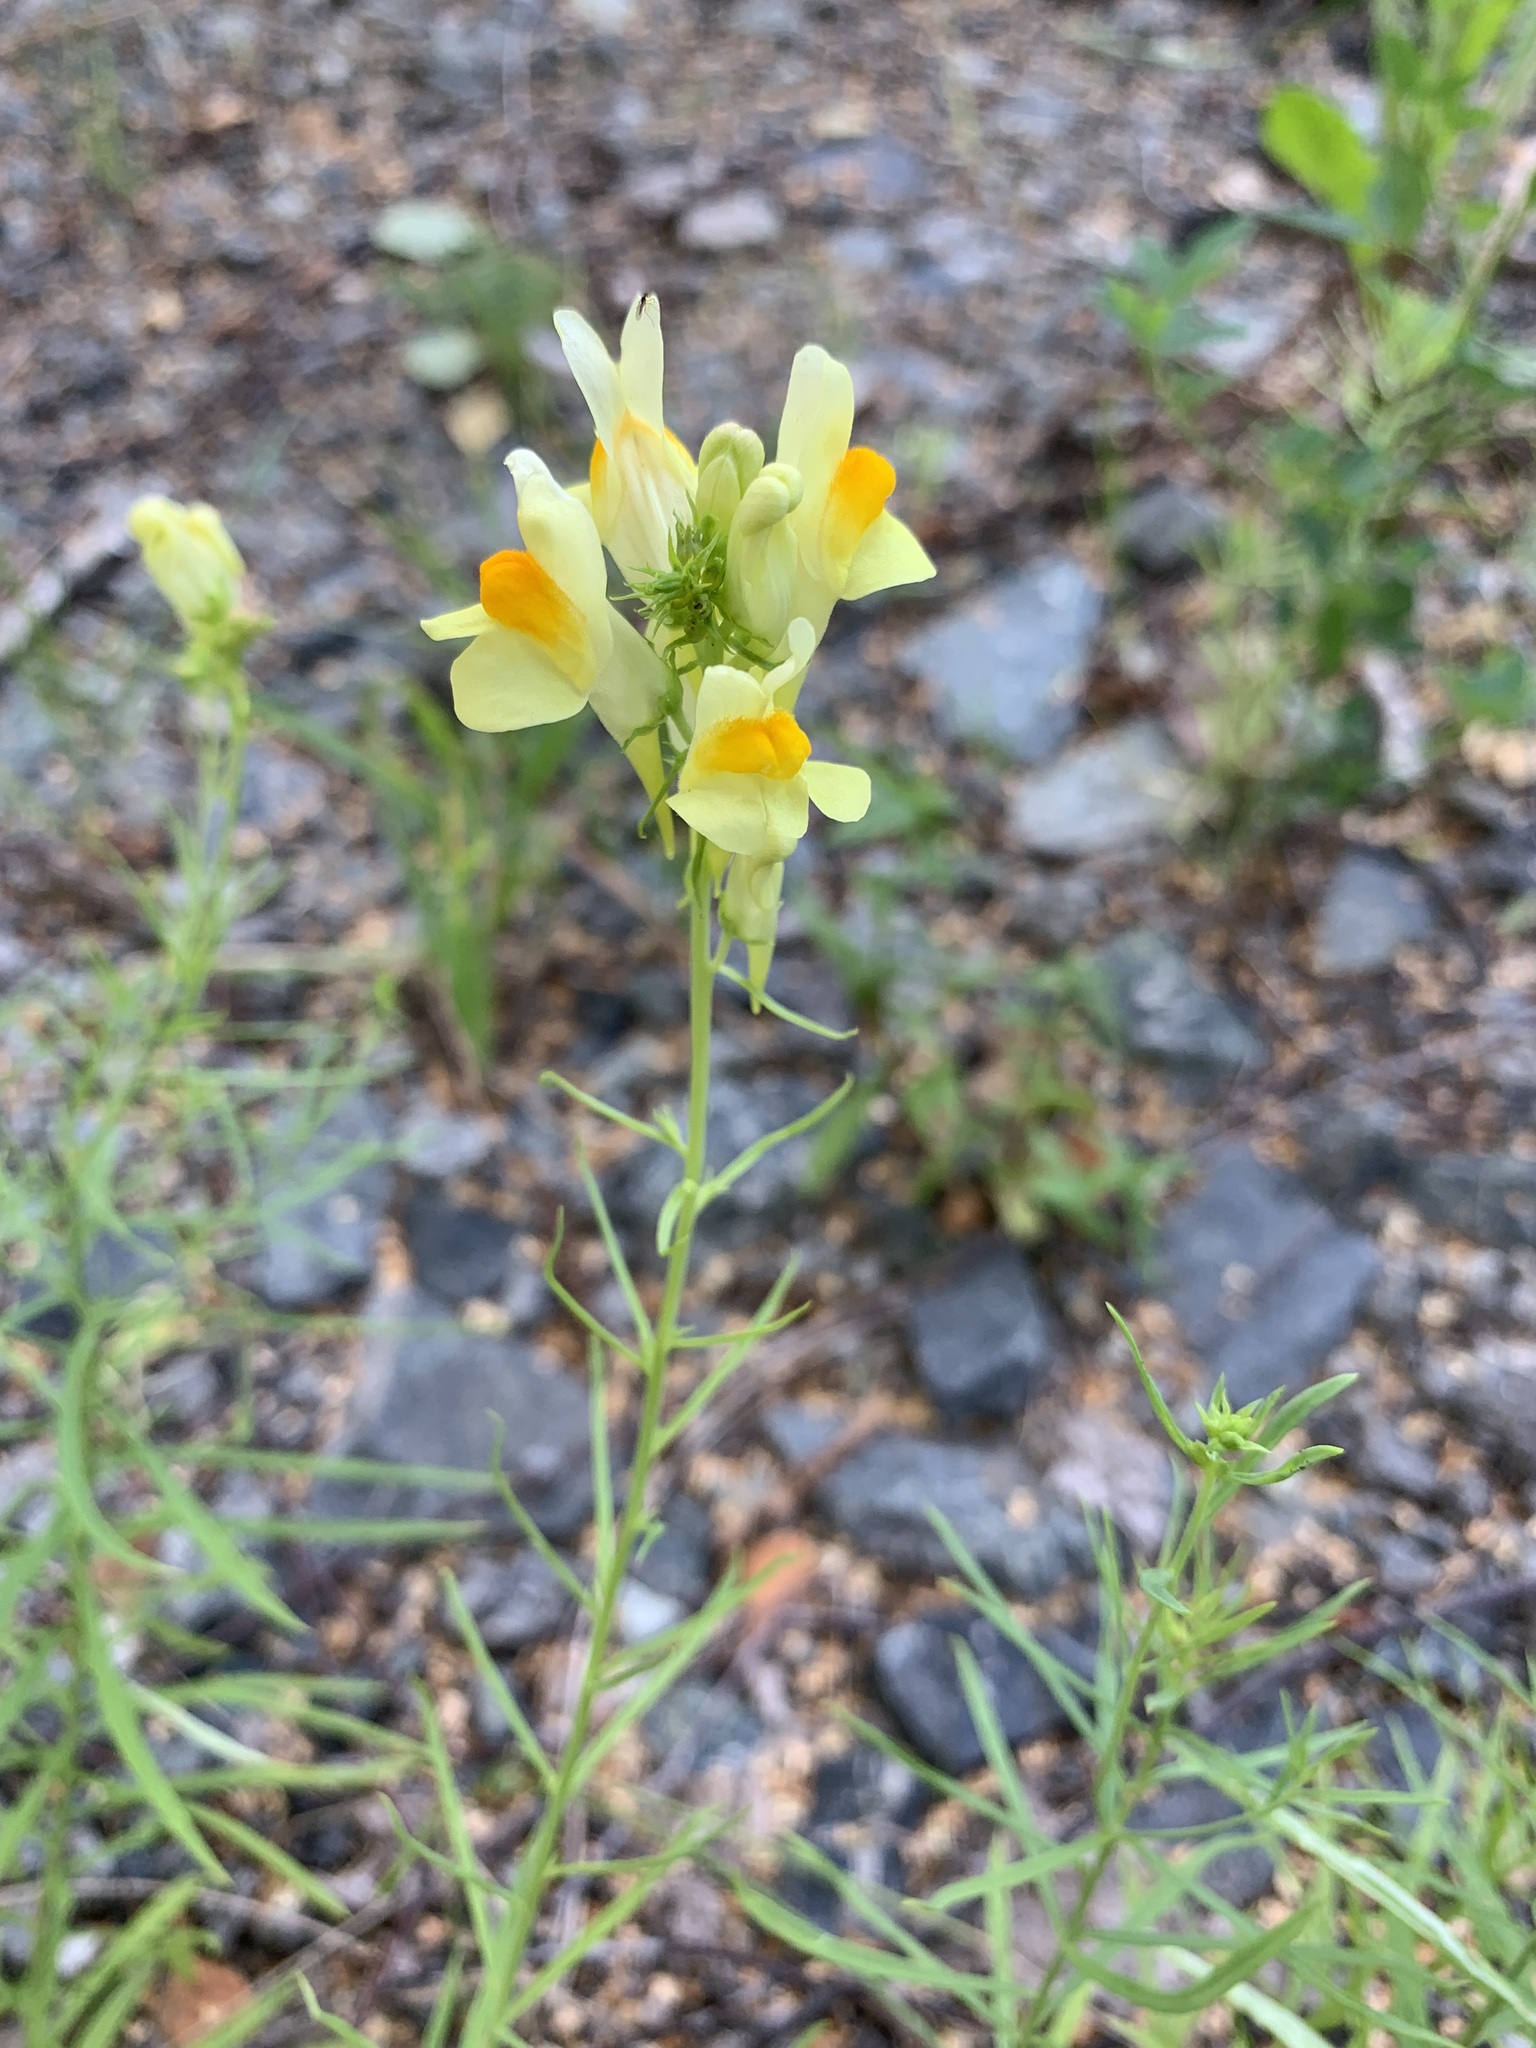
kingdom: Plantae
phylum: Tracheophyta
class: Magnoliopsida
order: Lamiales
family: Plantaginaceae
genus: Linaria
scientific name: Linaria vulgaris
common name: Butter and eggs
